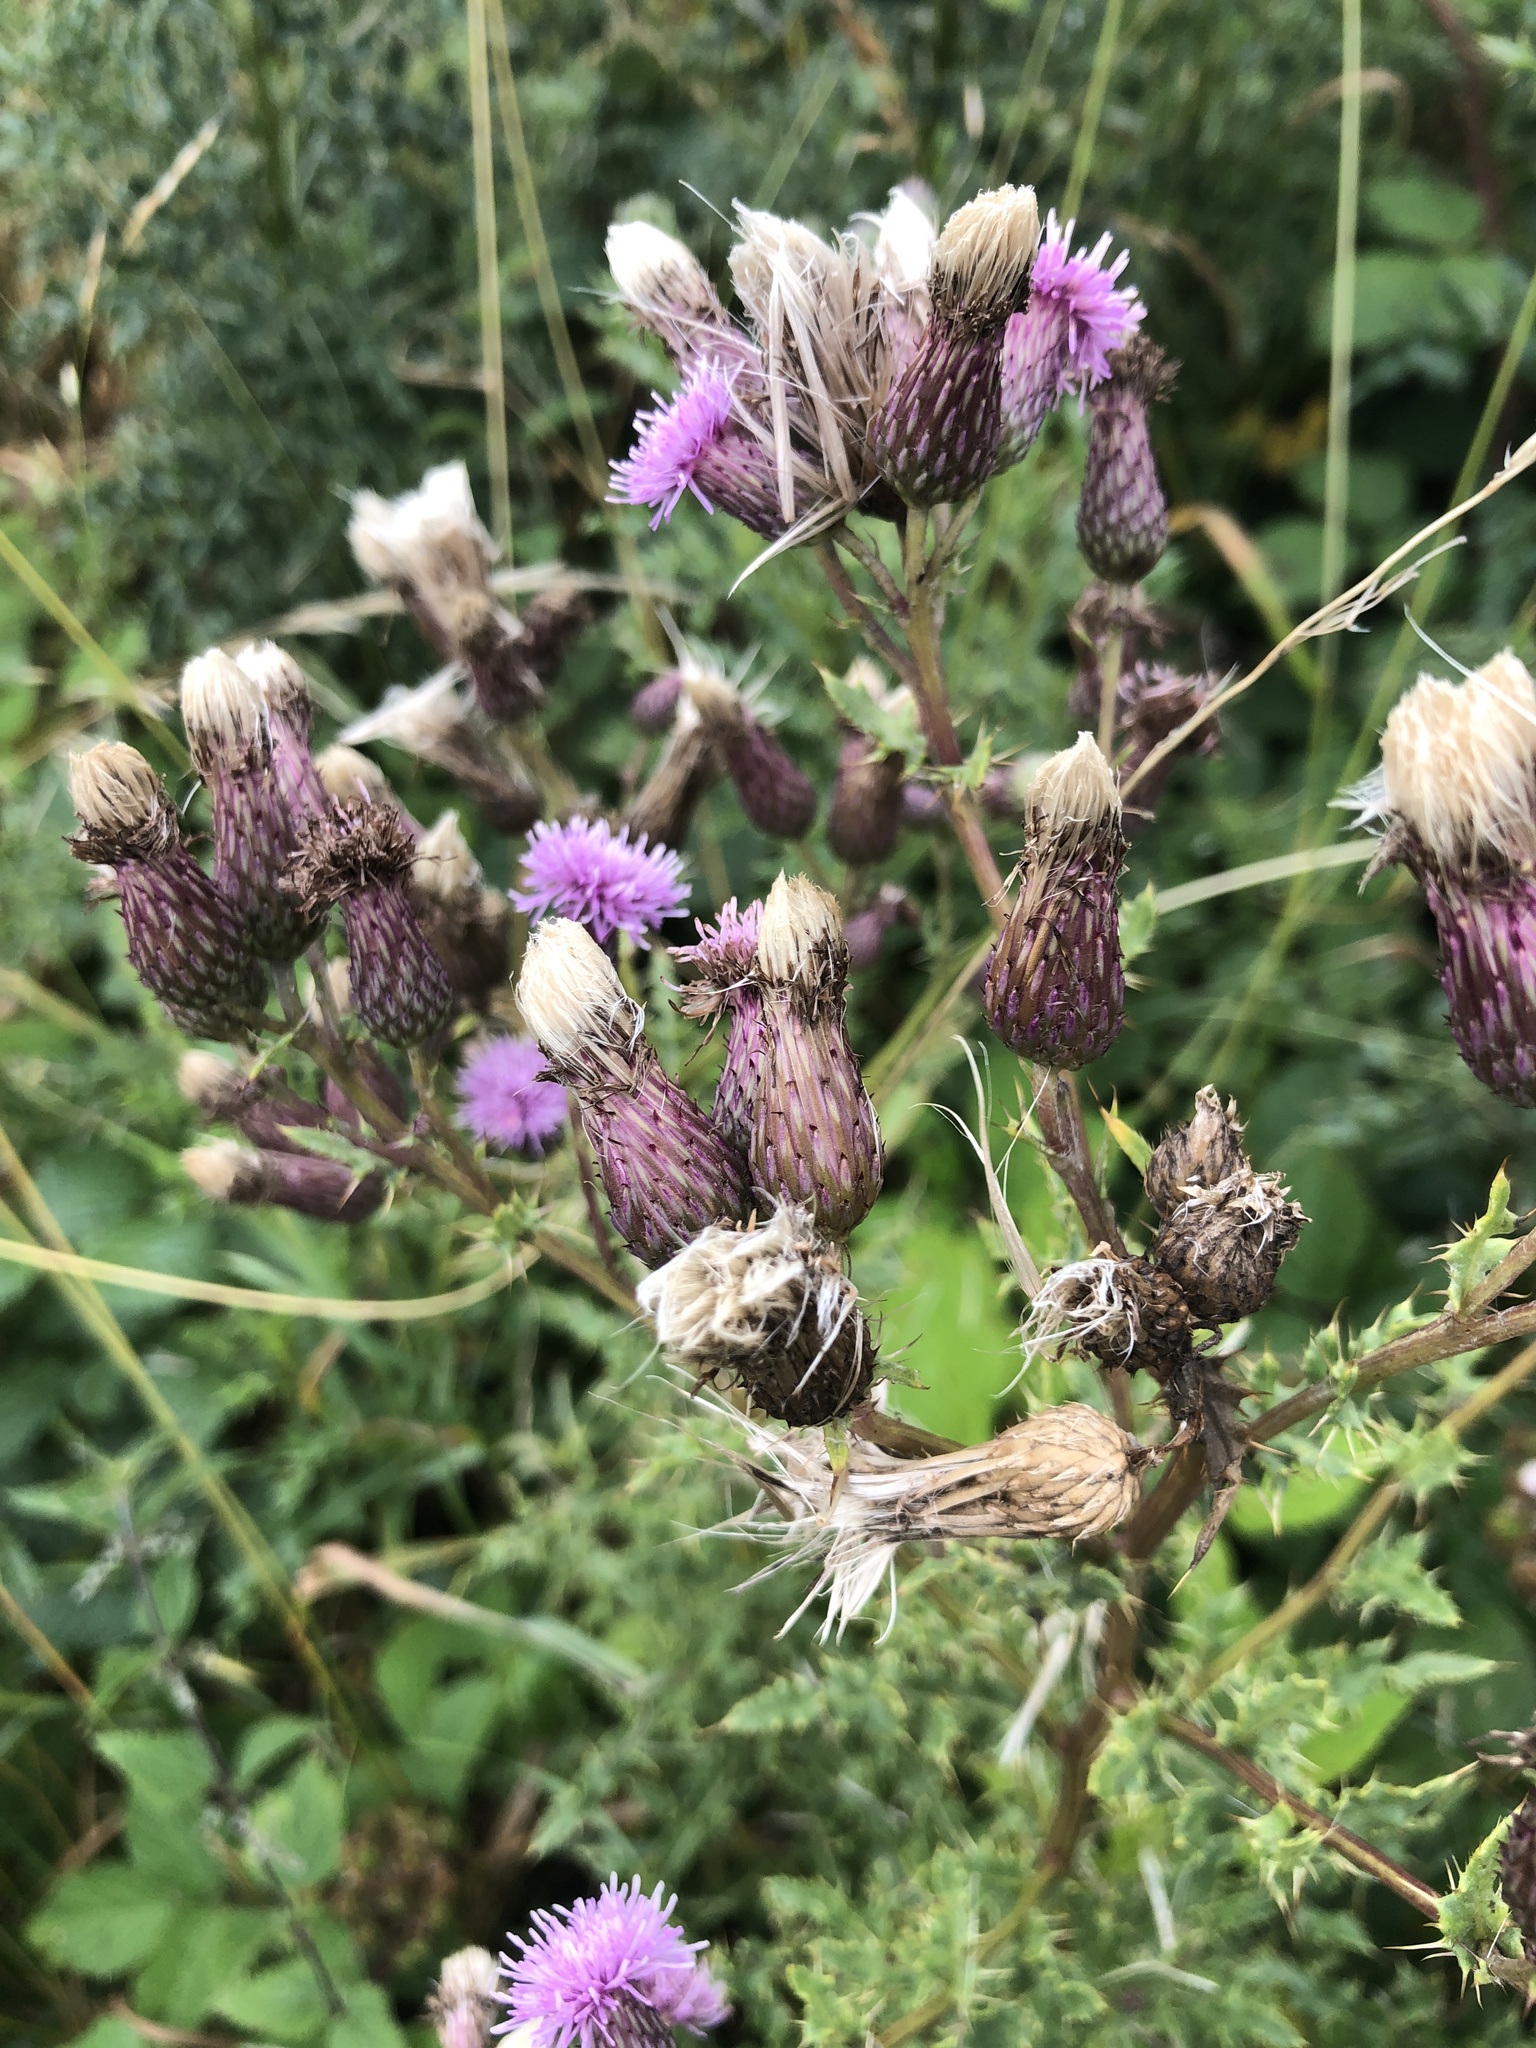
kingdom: Plantae
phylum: Tracheophyta
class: Magnoliopsida
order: Asterales
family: Asteraceae
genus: Cirsium
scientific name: Cirsium arvense
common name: Creeping thistle
